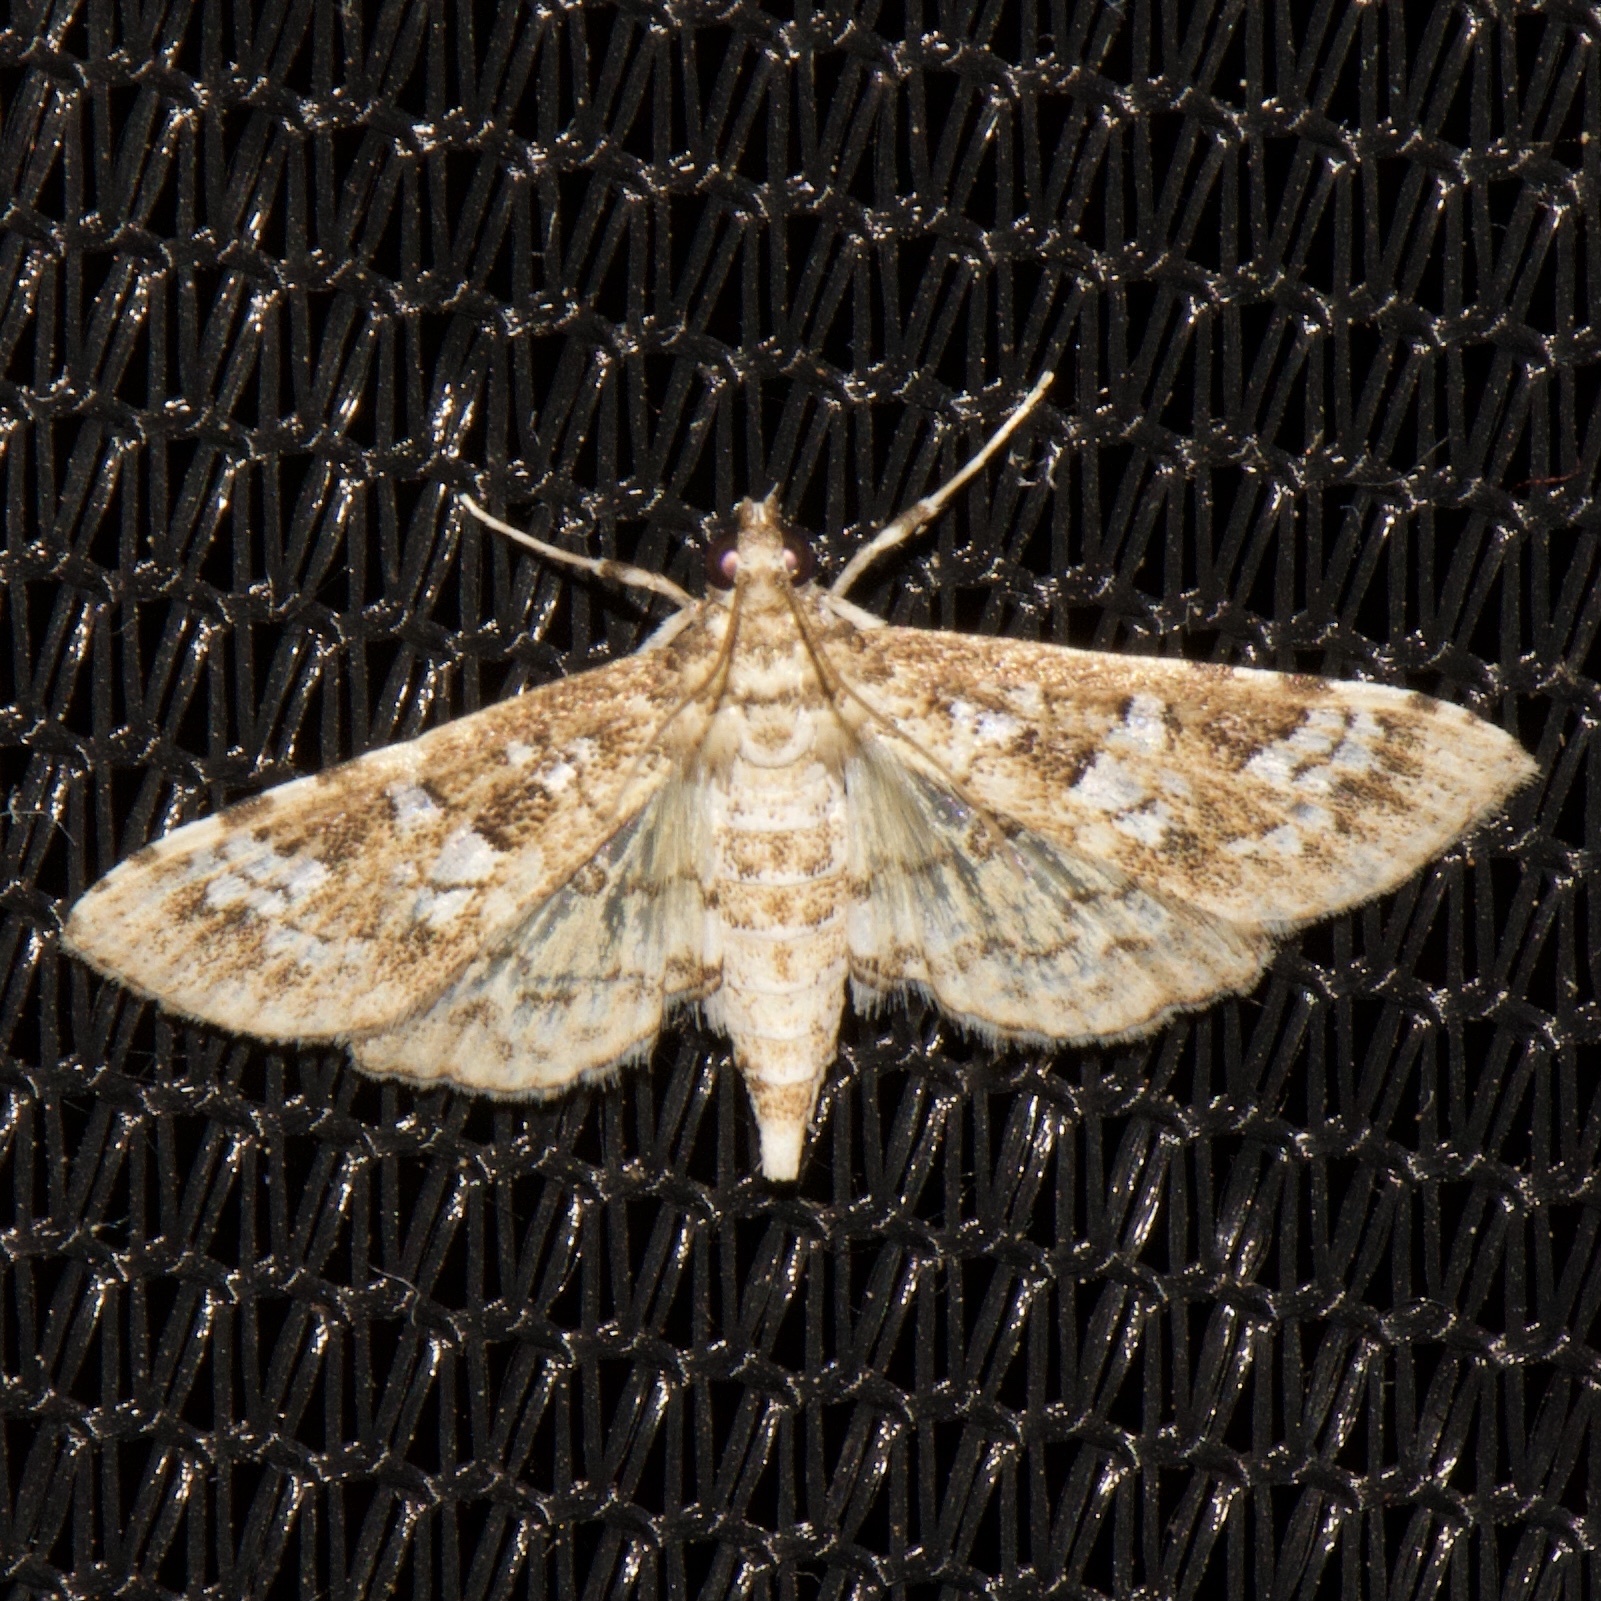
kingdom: Animalia
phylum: Arthropoda
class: Insecta
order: Lepidoptera
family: Crambidae
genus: Samea
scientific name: Samea multiplicalis
